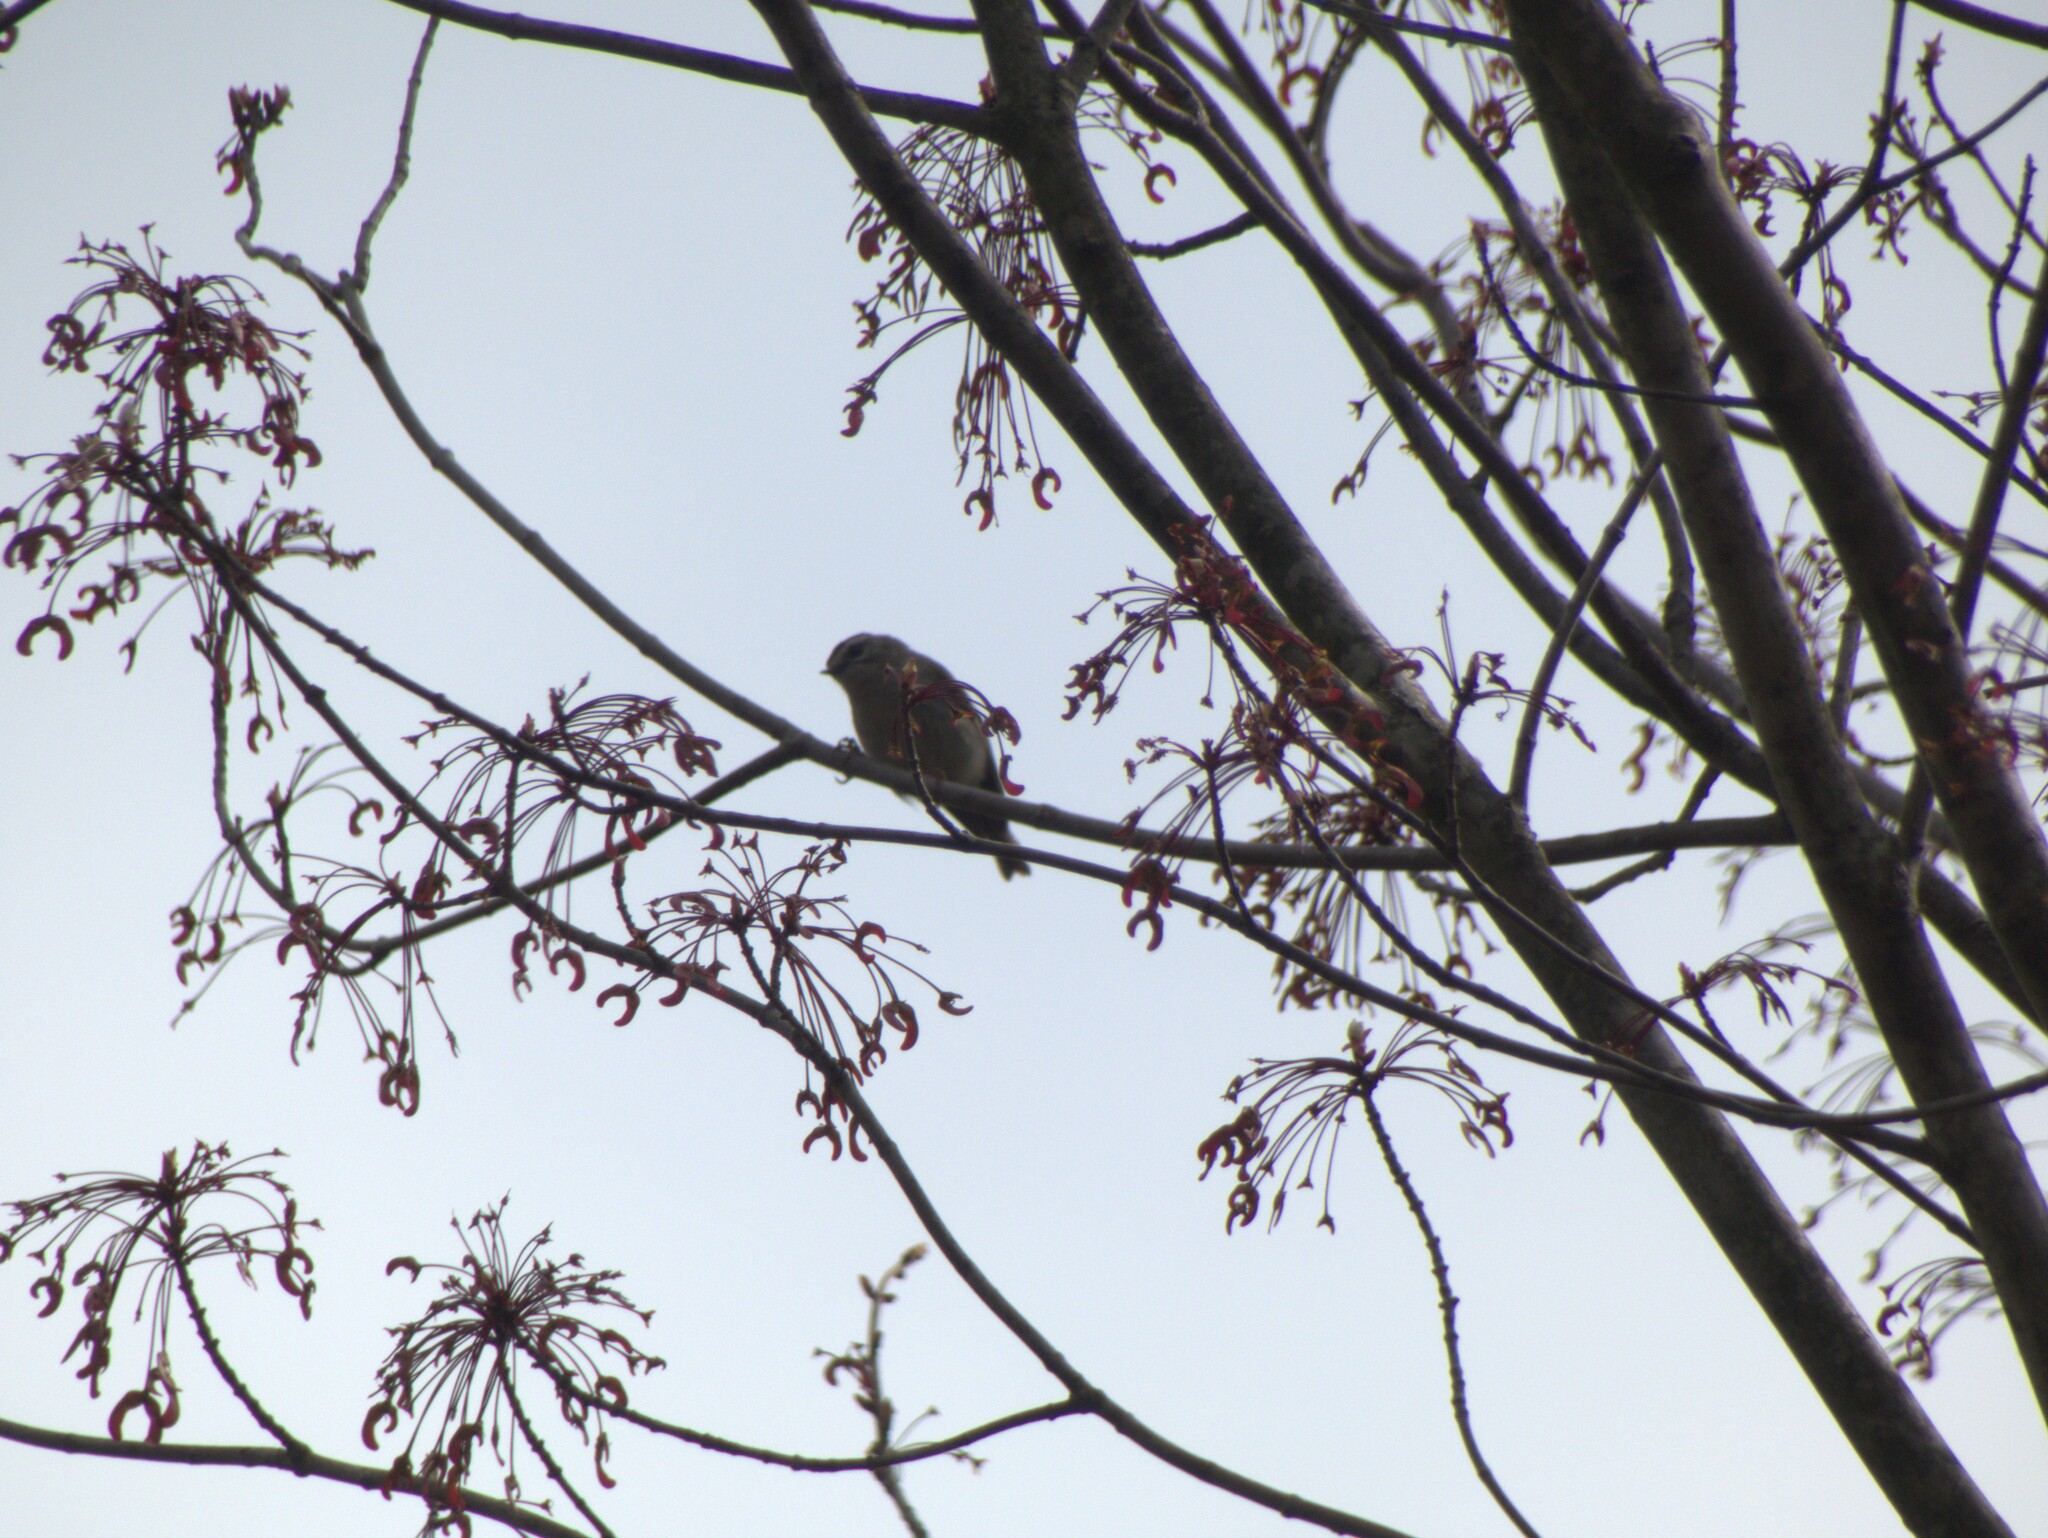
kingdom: Animalia
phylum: Chordata
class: Aves
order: Passeriformes
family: Regulidae
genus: Regulus
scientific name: Regulus satrapa
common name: Golden-crowned kinglet
